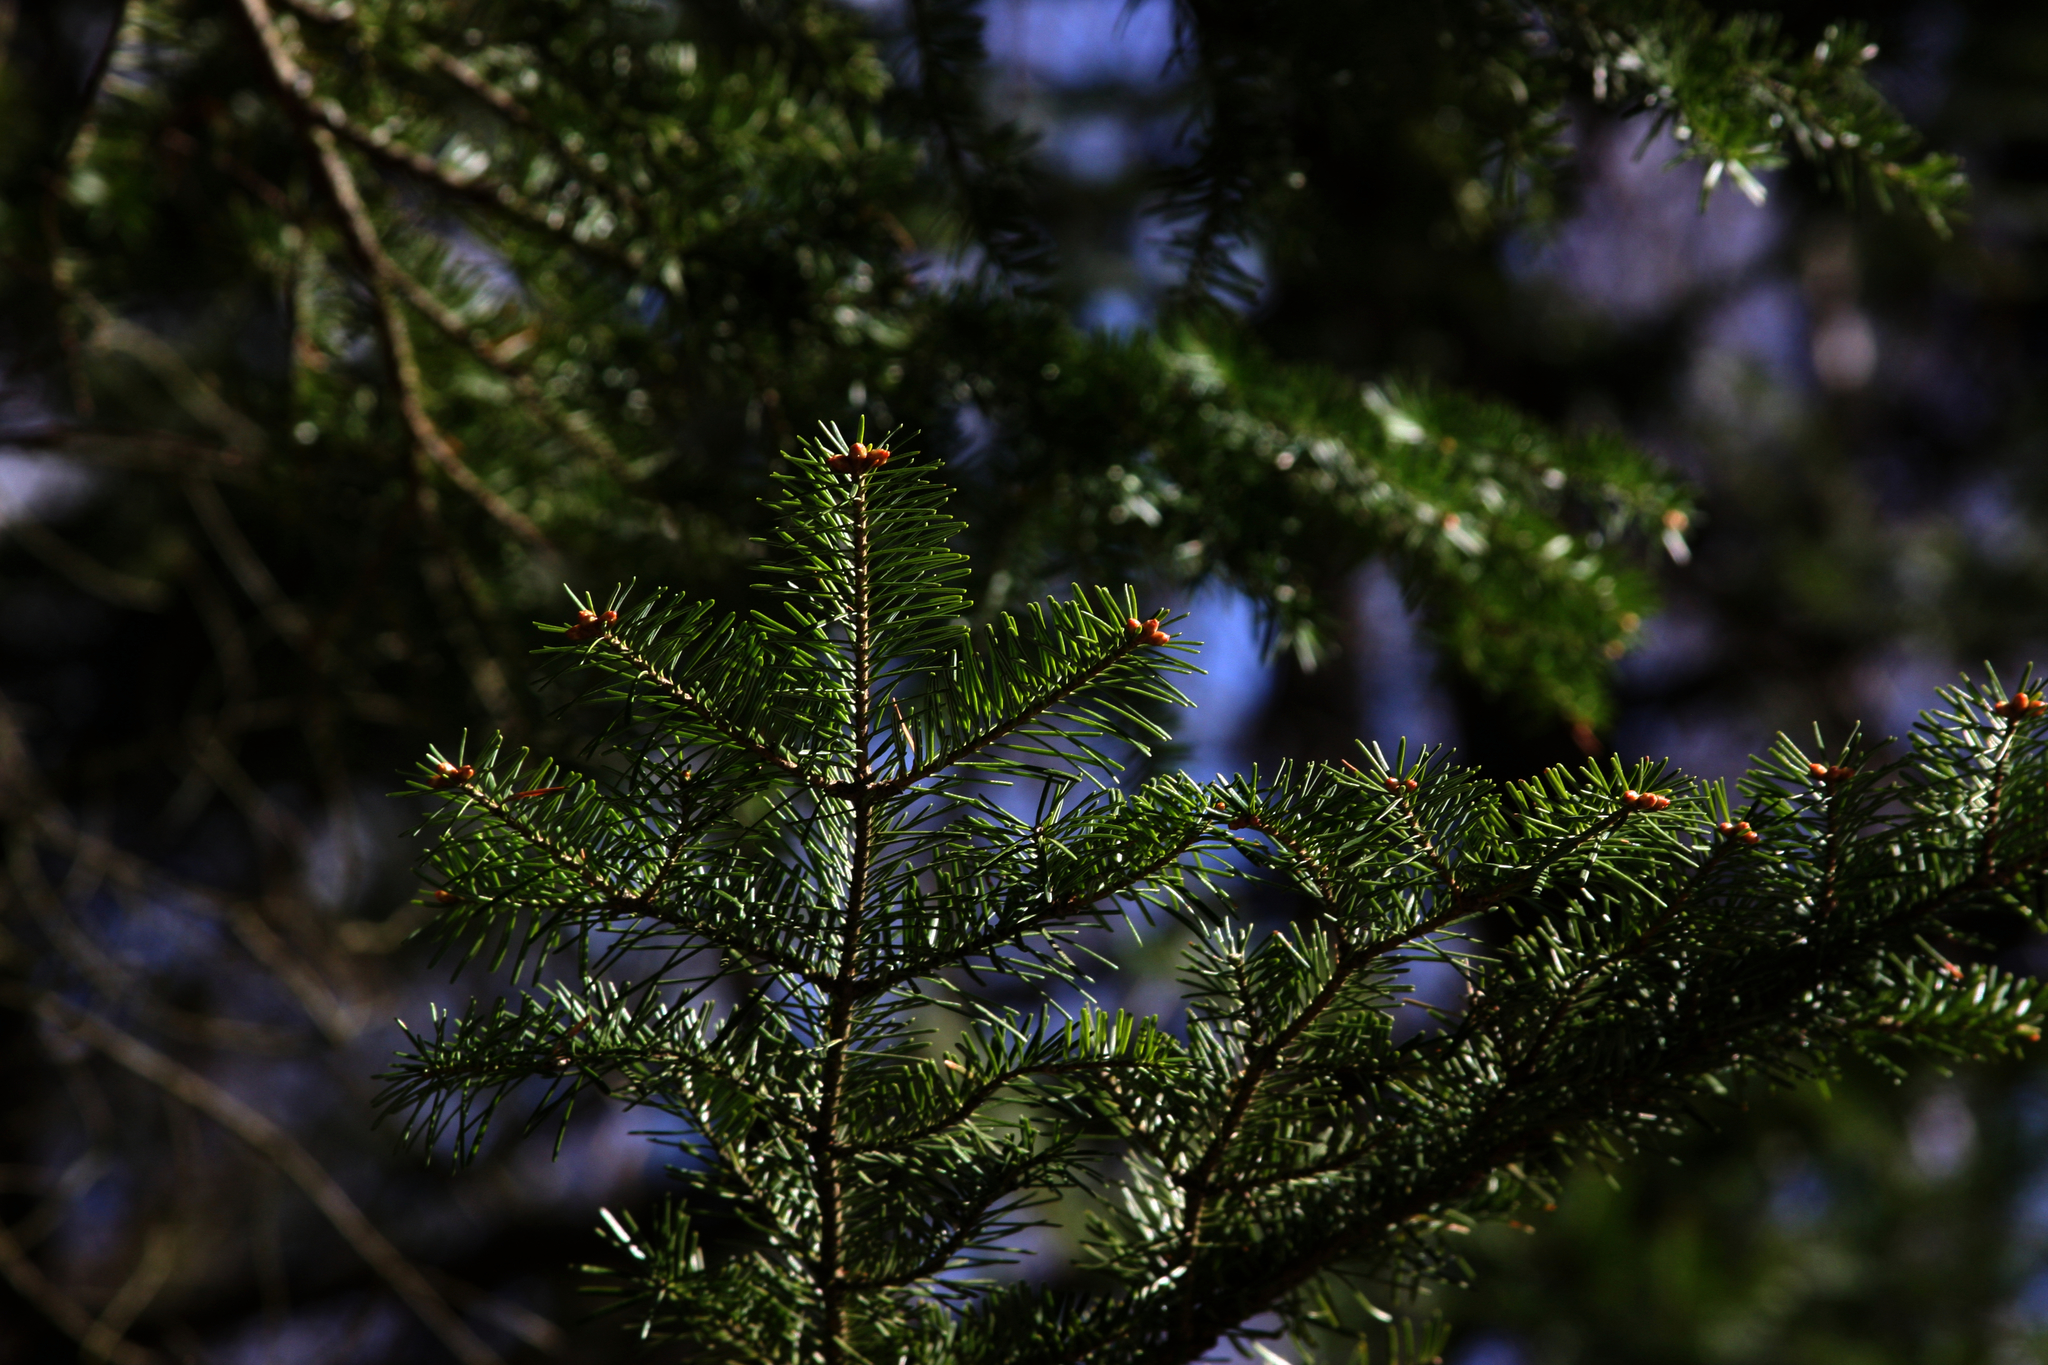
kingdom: Plantae
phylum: Tracheophyta
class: Pinopsida
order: Pinales
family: Pinaceae
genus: Abies
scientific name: Abies balsamea
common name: Balsam fir
